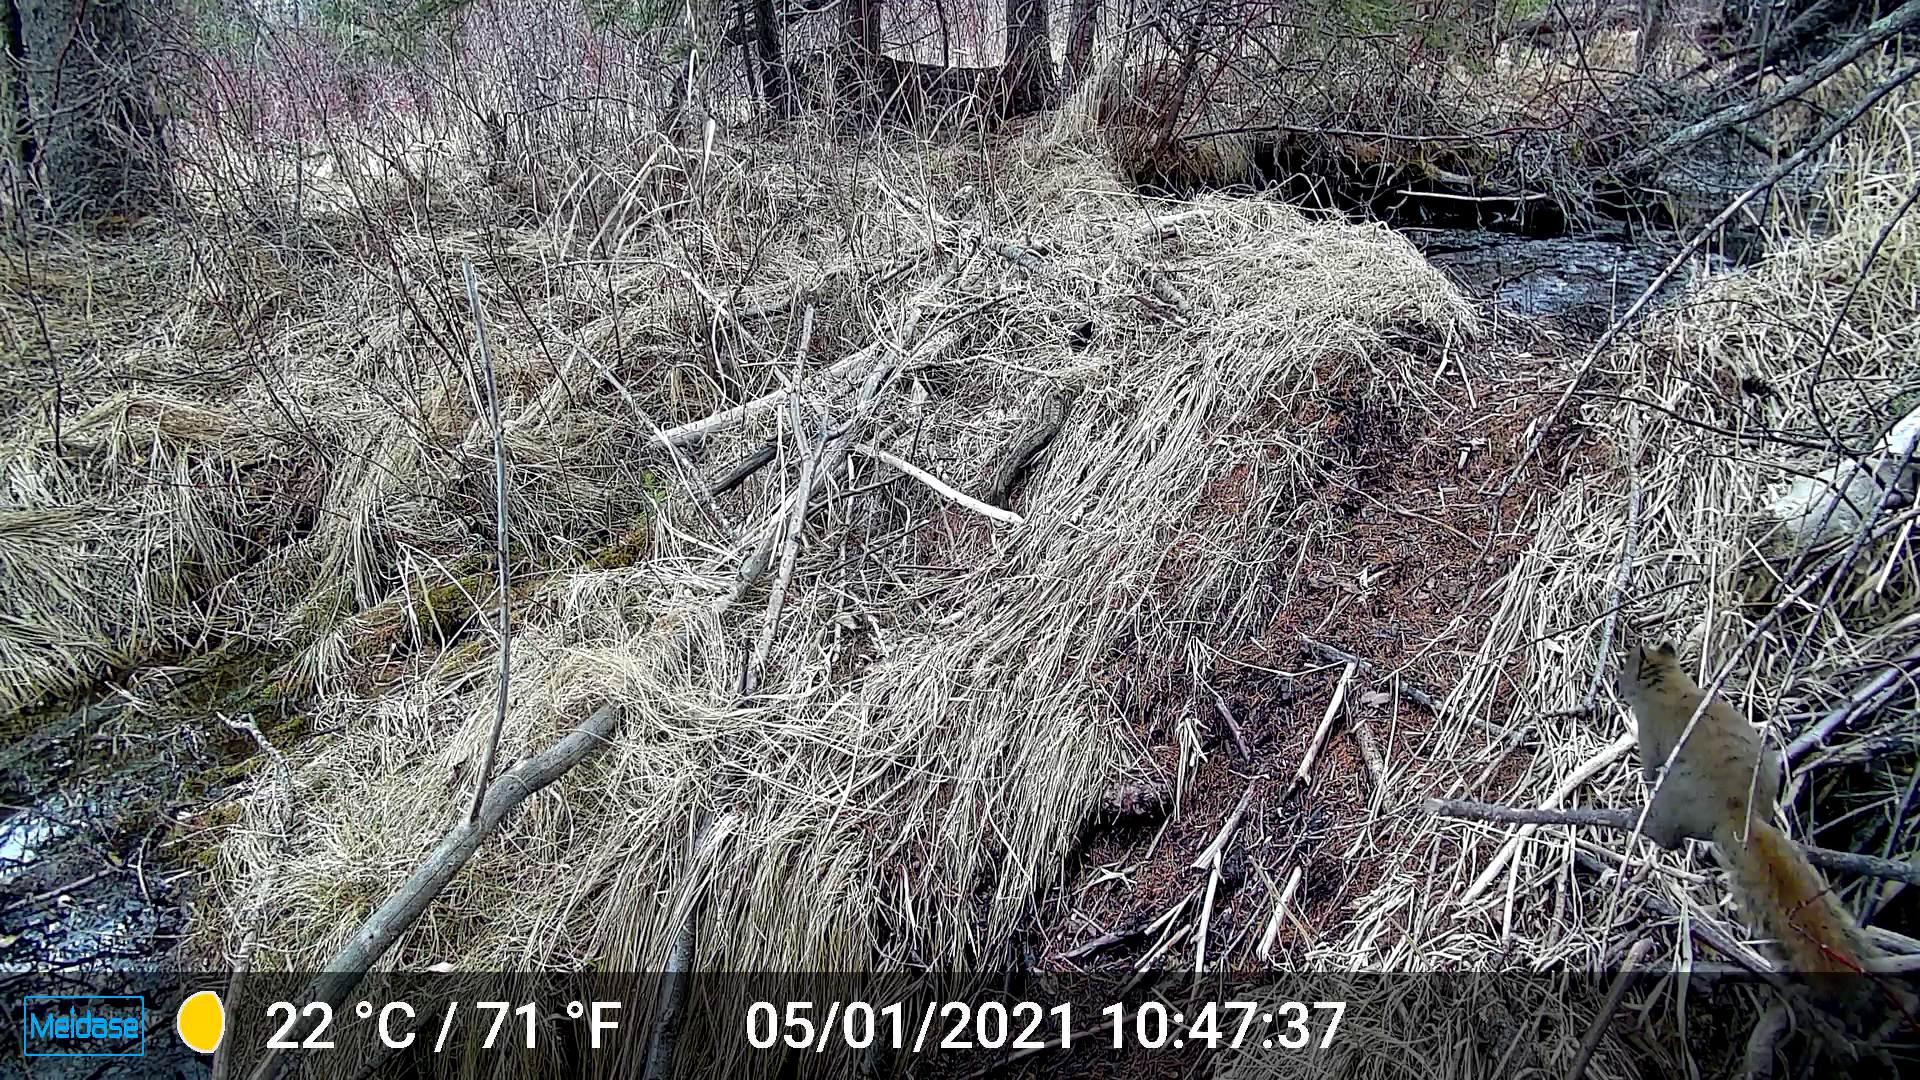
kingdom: Animalia
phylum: Chordata
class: Mammalia
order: Rodentia
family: Sciuridae
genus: Tamiasciurus
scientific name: Tamiasciurus hudsonicus
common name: Red squirrel
